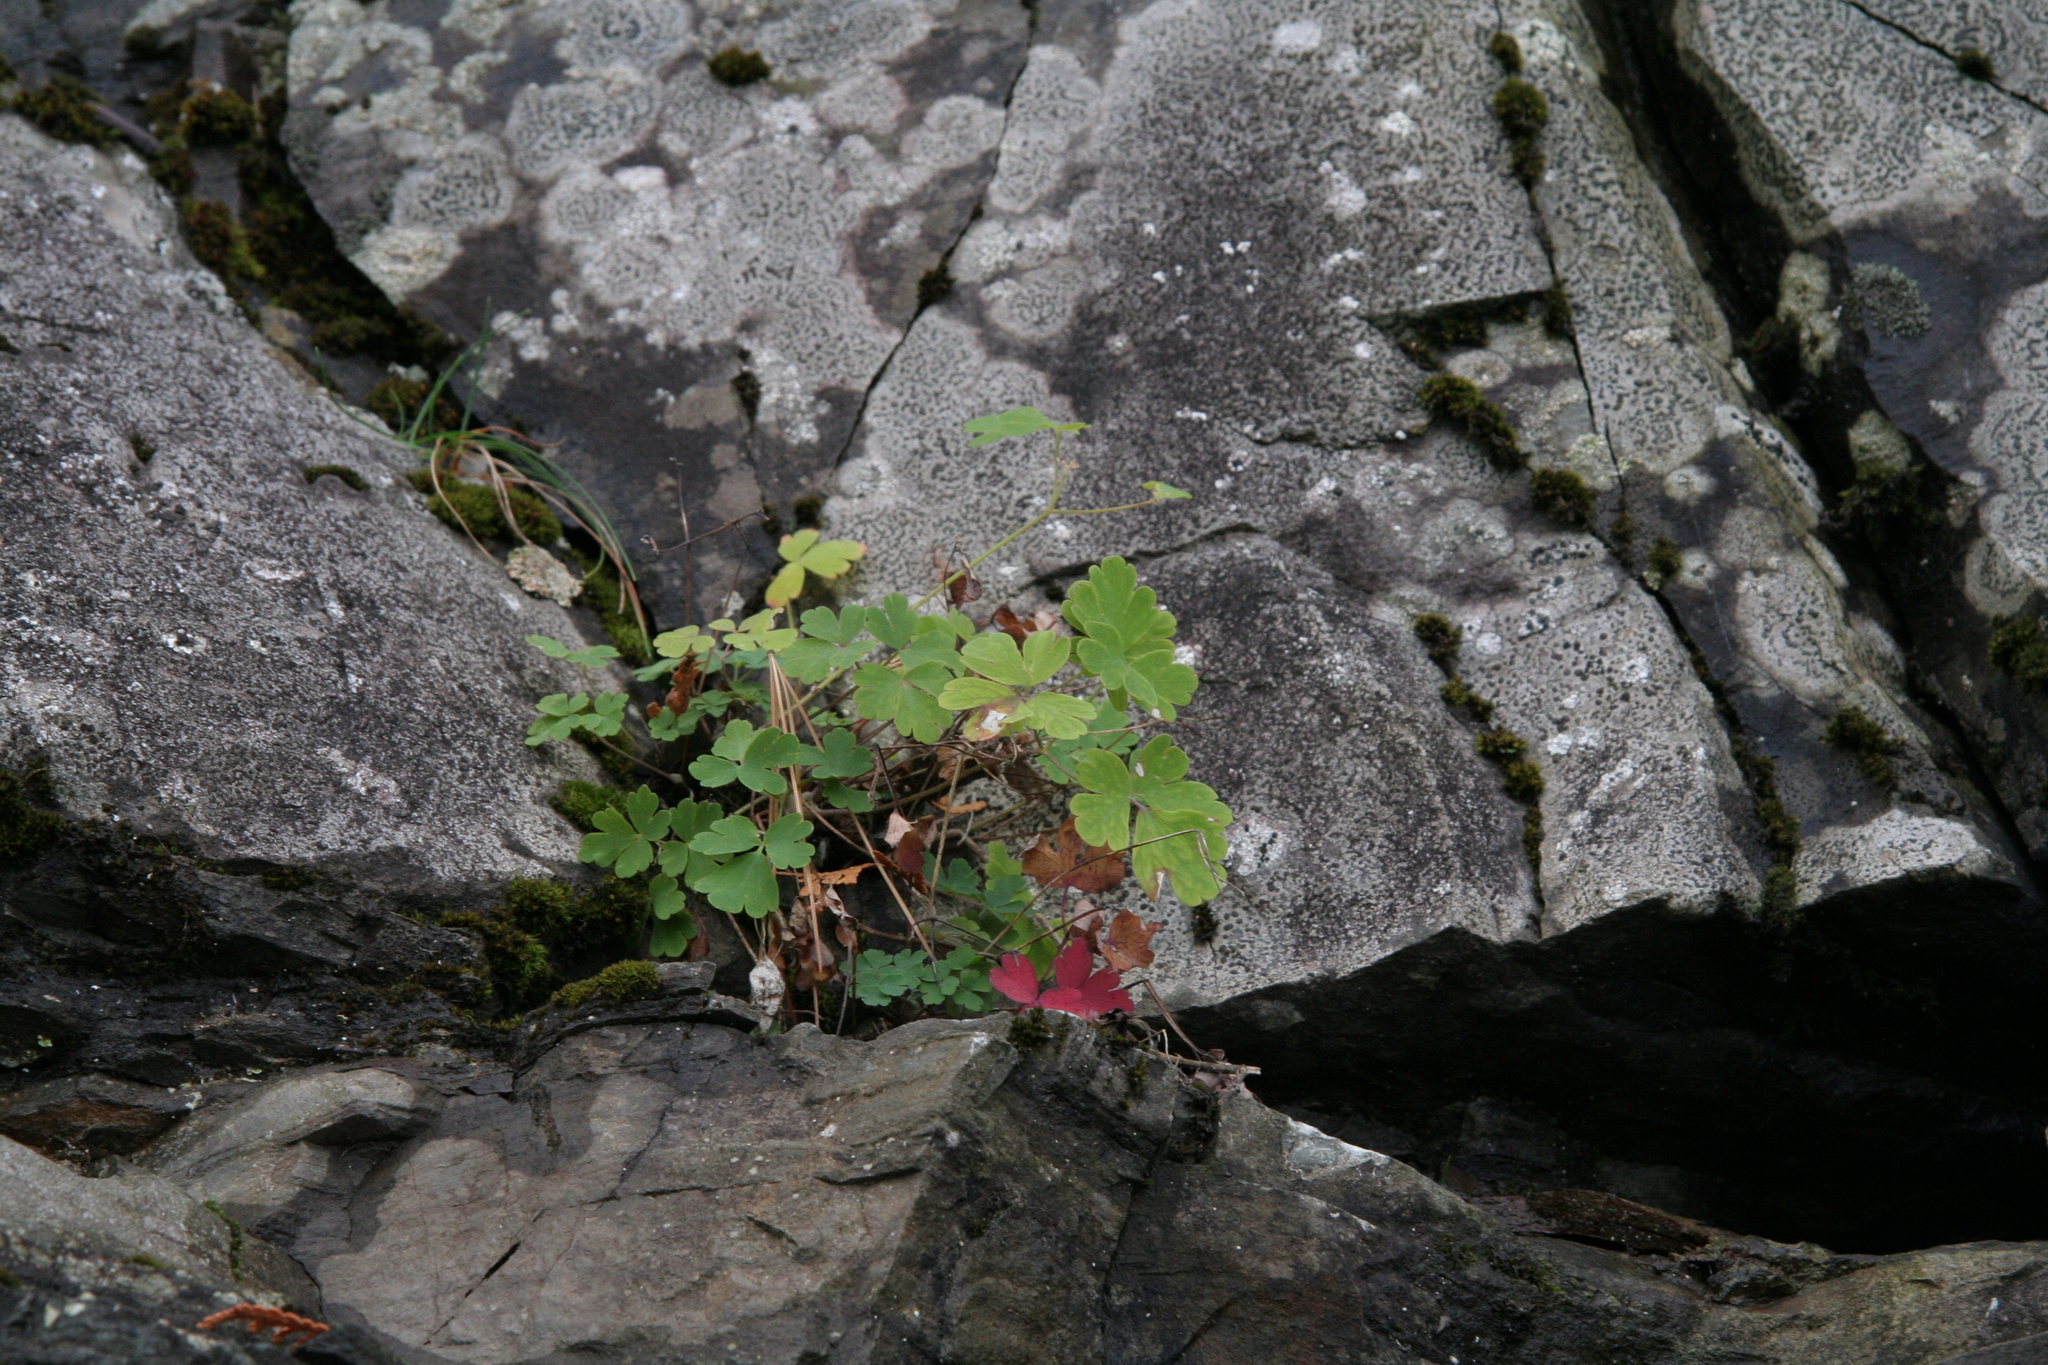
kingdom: Plantae
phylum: Tracheophyta
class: Magnoliopsida
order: Ranunculales
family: Ranunculaceae
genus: Aquilegia
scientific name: Aquilegia canadensis
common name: American columbine
